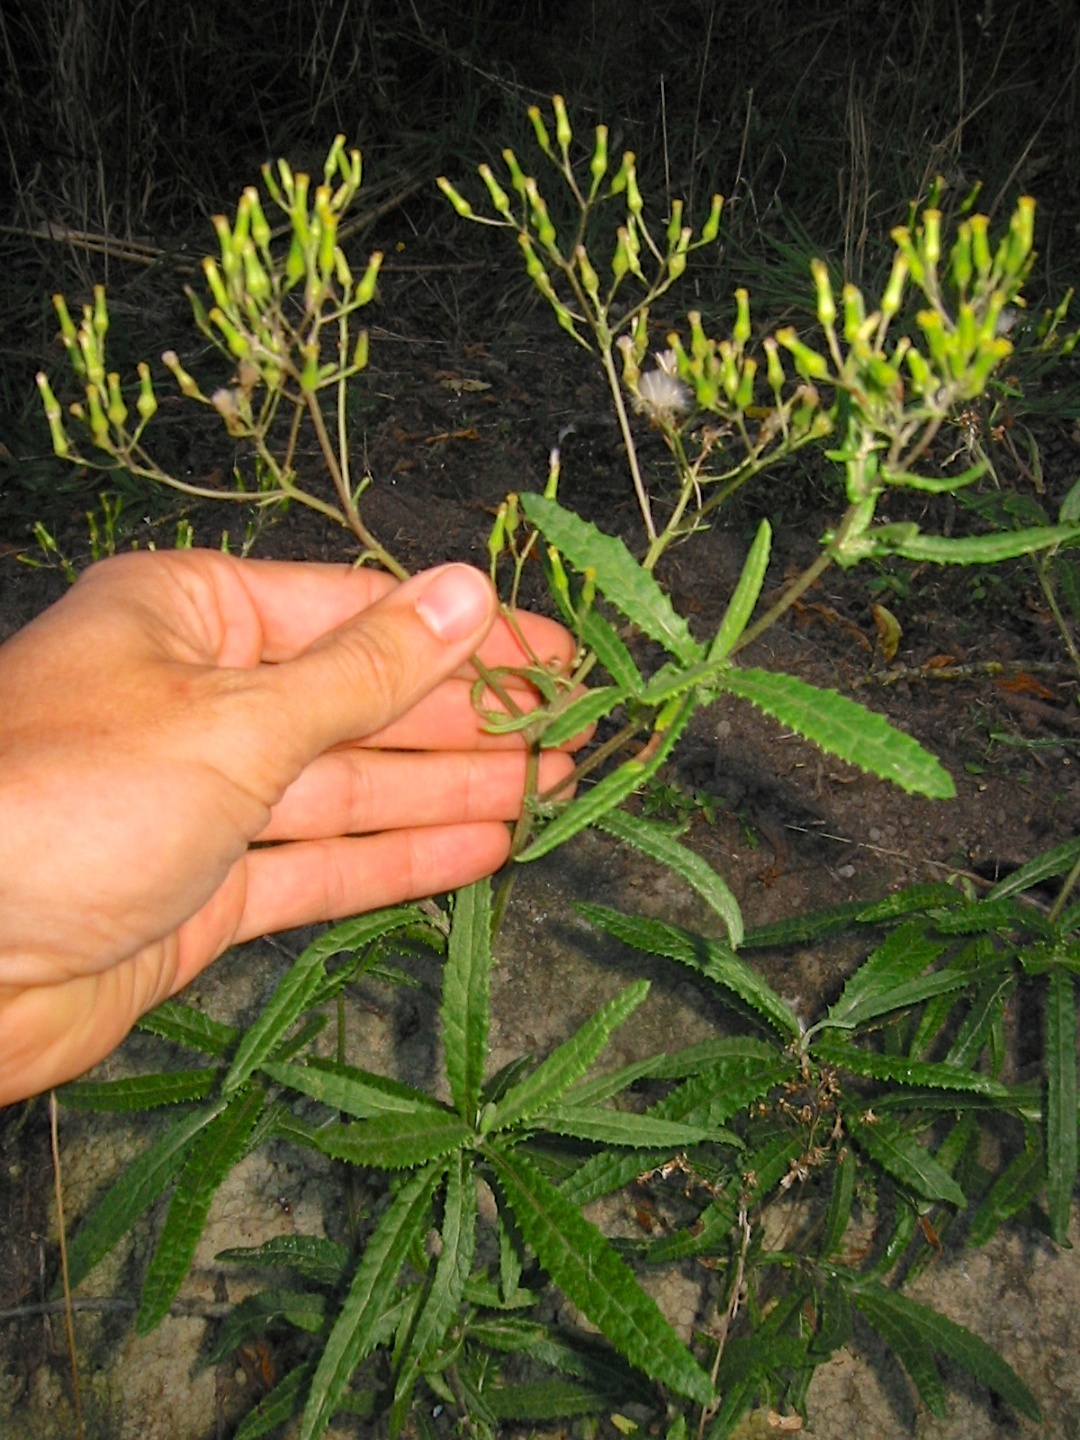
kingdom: Plantae
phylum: Tracheophyta
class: Magnoliopsida
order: Asterales
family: Asteraceae
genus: Senecio
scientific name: Senecio minimus
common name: Toothed fireweed
